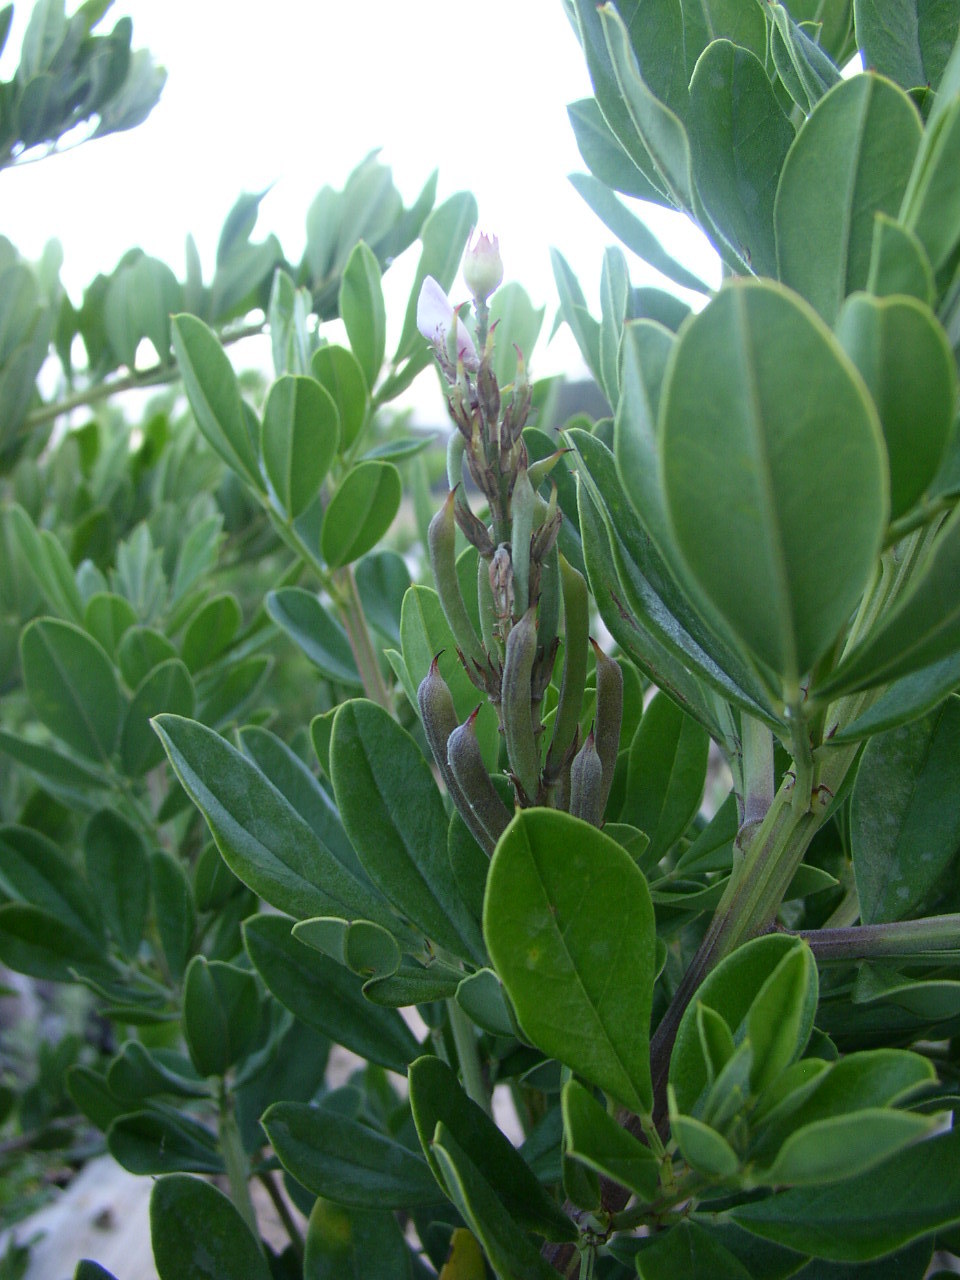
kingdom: Plantae
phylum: Tracheophyta
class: Magnoliopsida
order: Fabales
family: Fabaceae
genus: Indigofera
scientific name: Indigofera cytisoides
